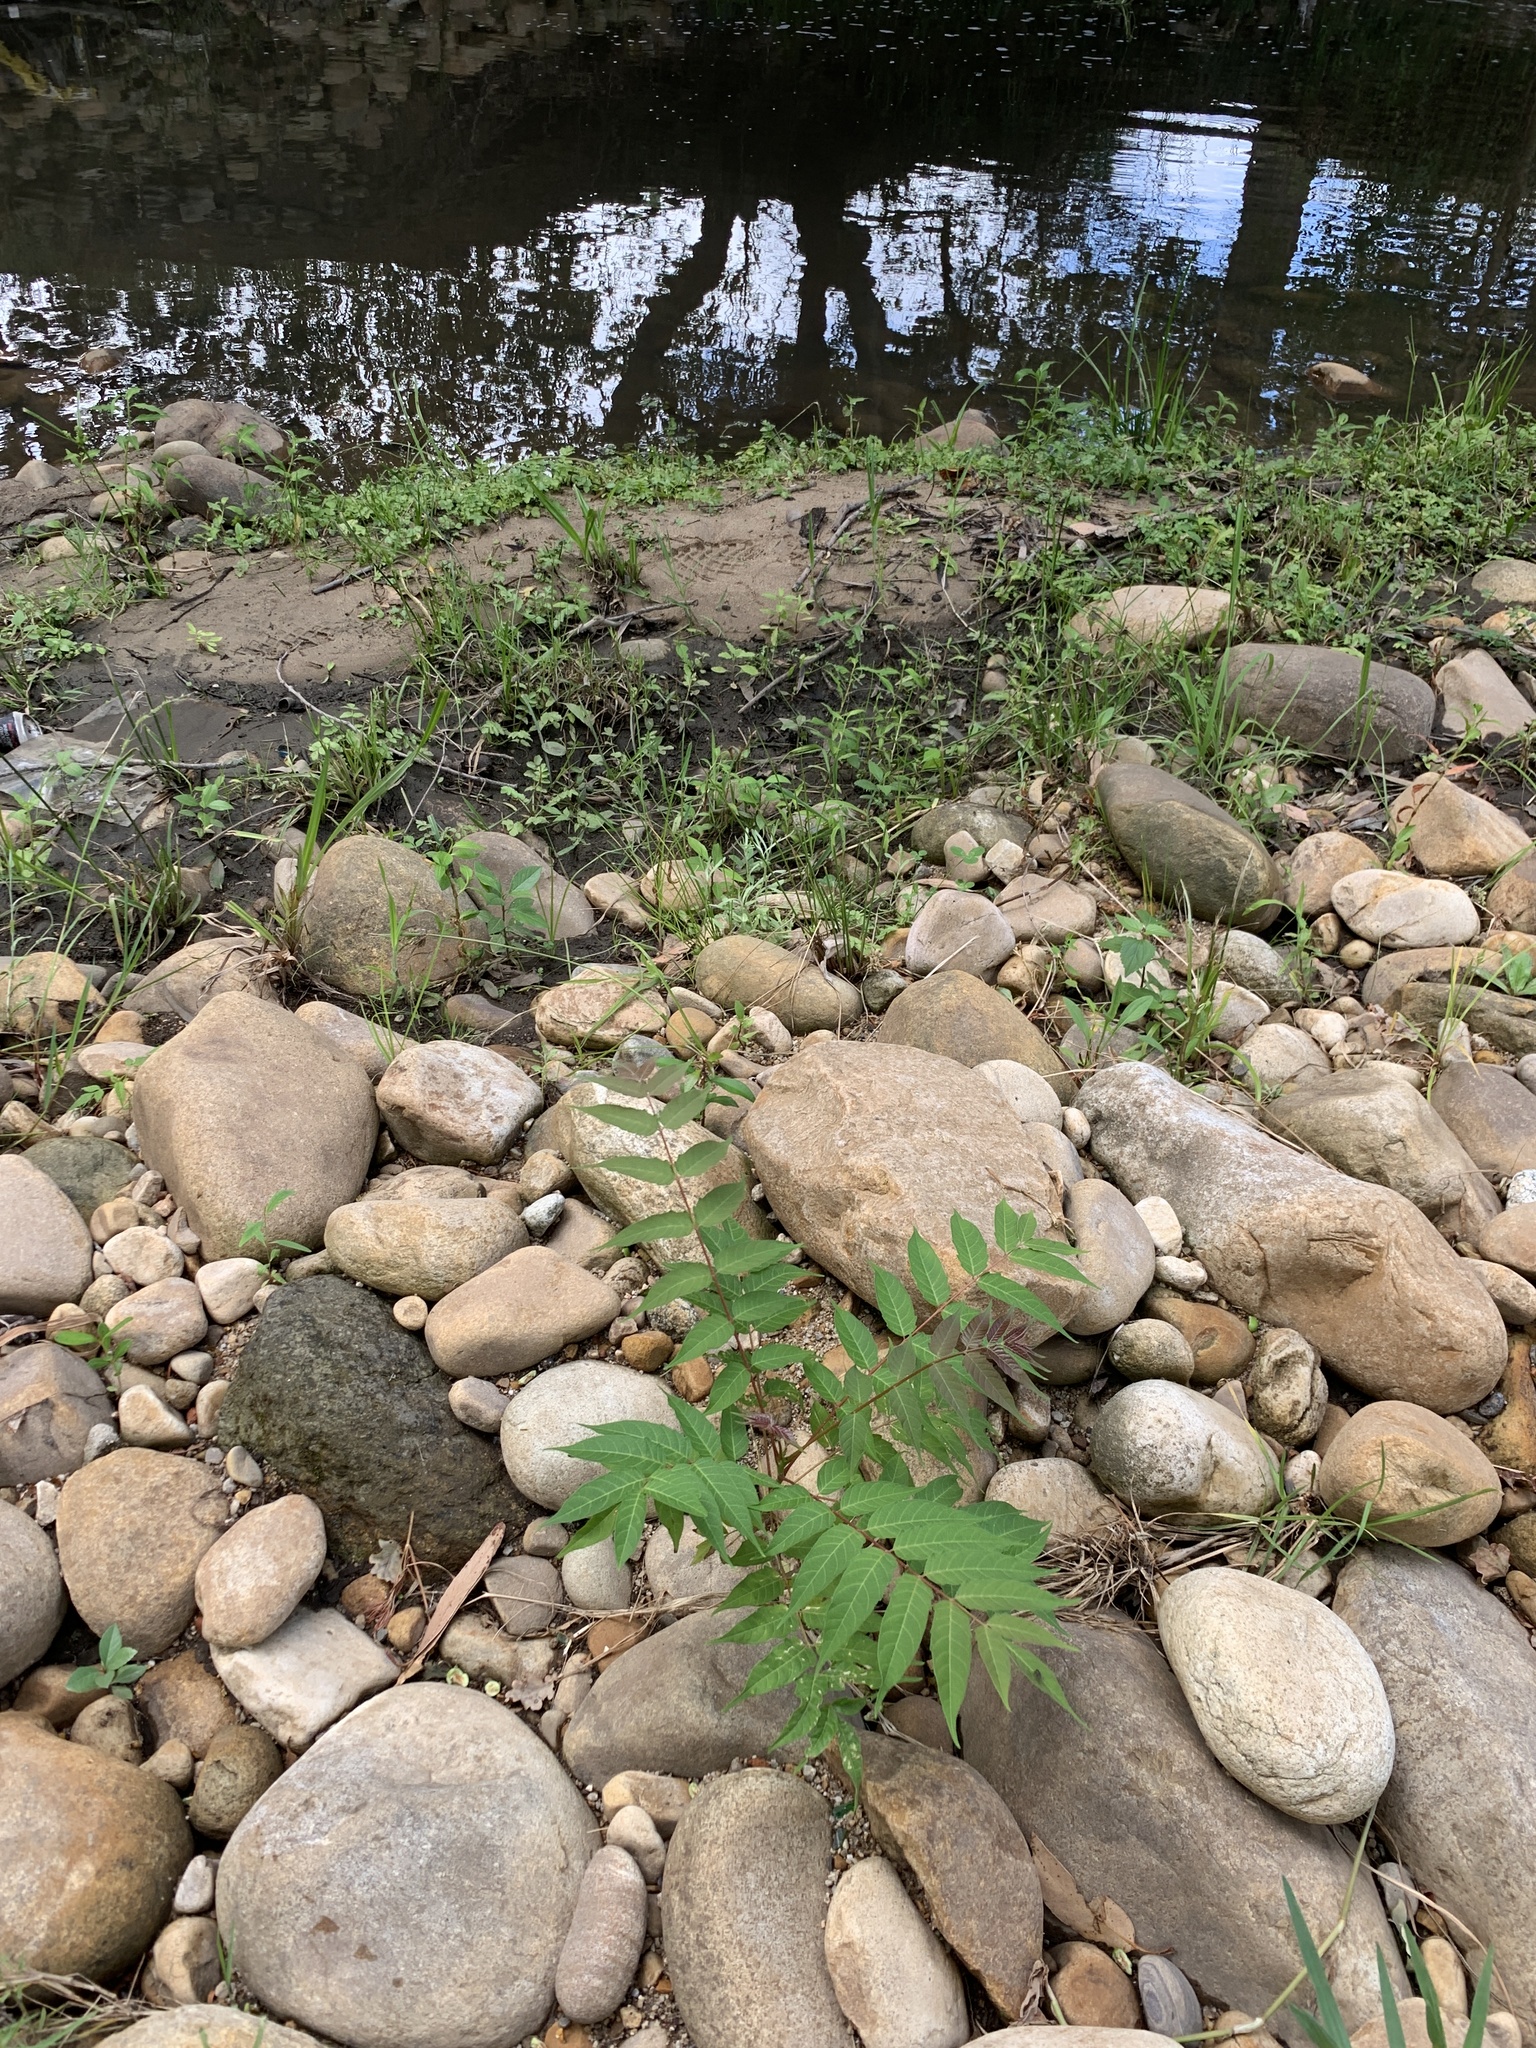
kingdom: Plantae
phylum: Tracheophyta
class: Magnoliopsida
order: Sapindales
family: Simaroubaceae
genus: Ailanthus
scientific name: Ailanthus altissima
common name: Tree-of-heaven
